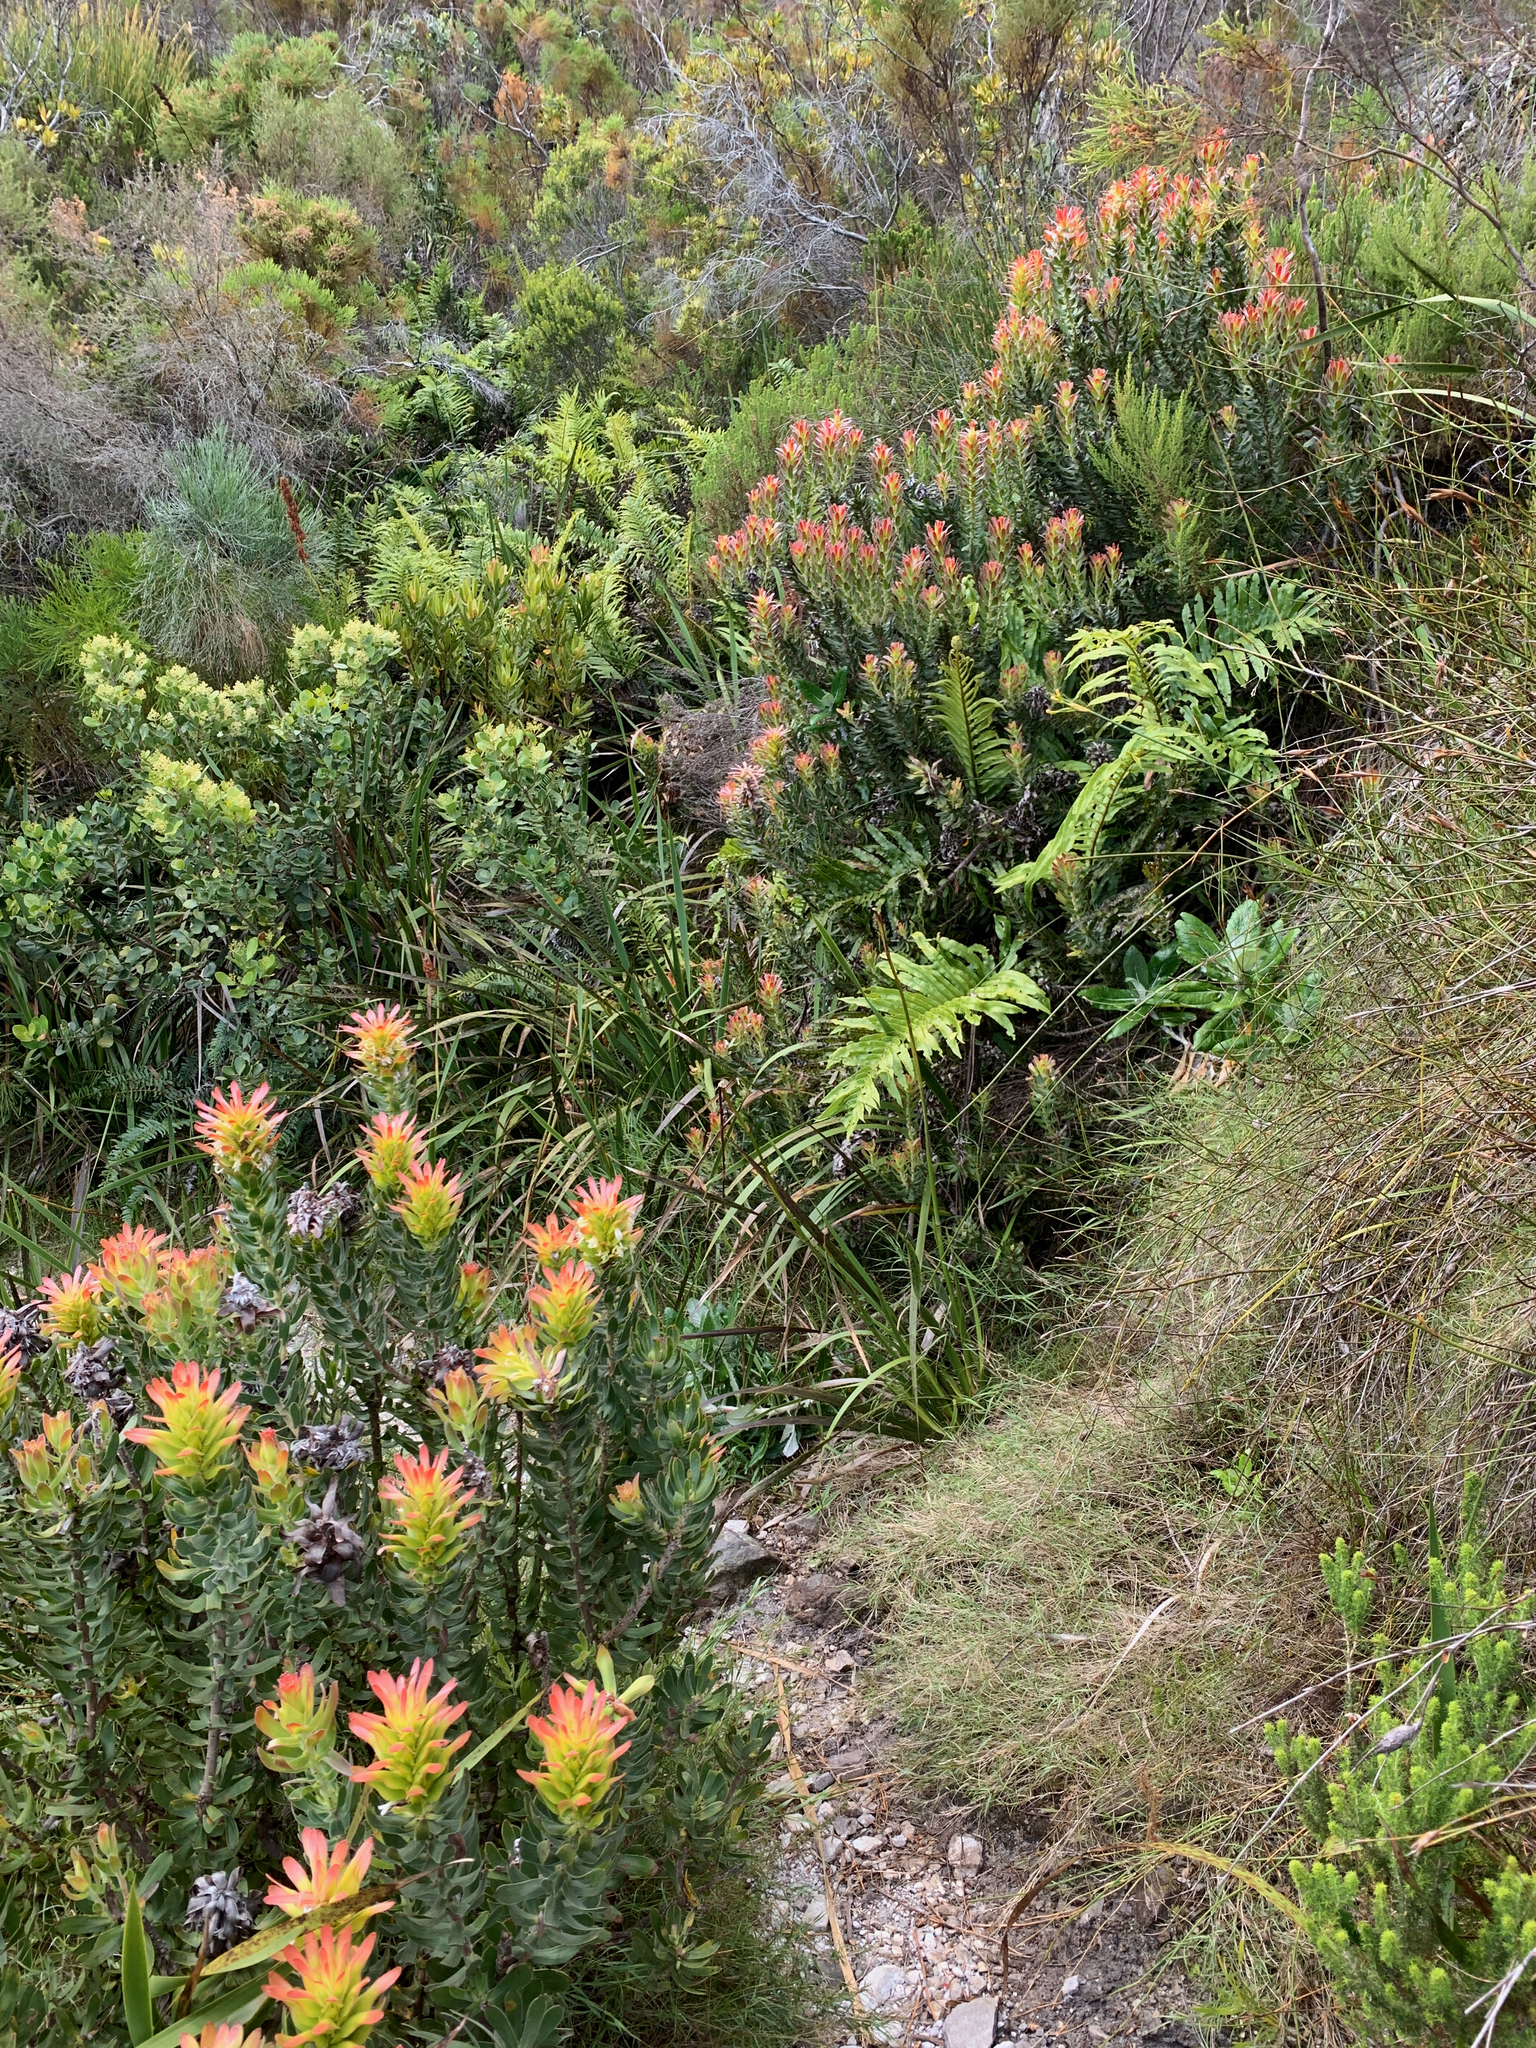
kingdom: Plantae
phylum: Tracheophyta
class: Magnoliopsida
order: Proteales
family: Proteaceae
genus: Mimetes
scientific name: Mimetes cucullatus
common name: Common pagoda
